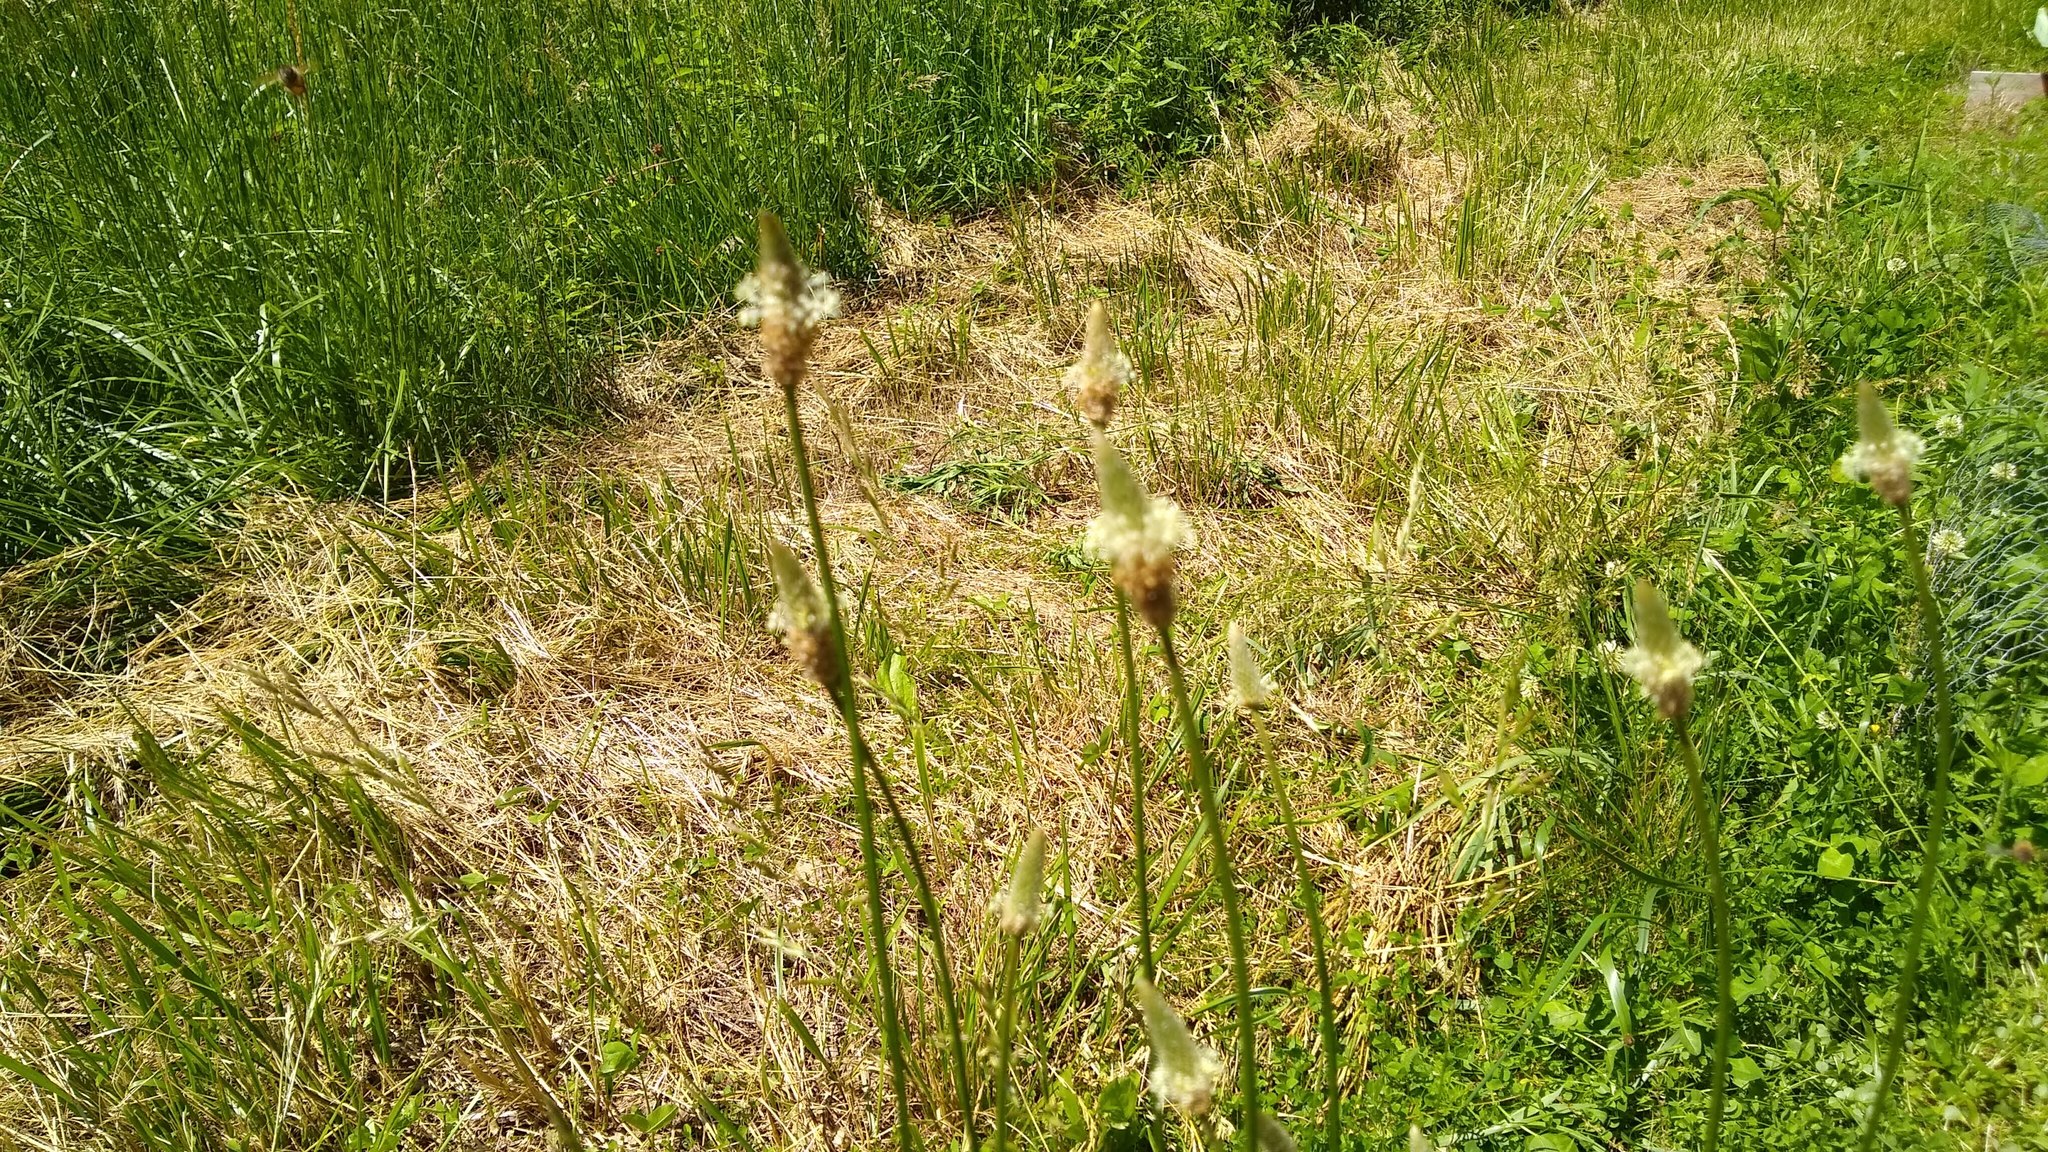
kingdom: Plantae
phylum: Tracheophyta
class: Magnoliopsida
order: Lamiales
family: Plantaginaceae
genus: Plantago
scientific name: Plantago lanceolata
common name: Ribwort plantain
